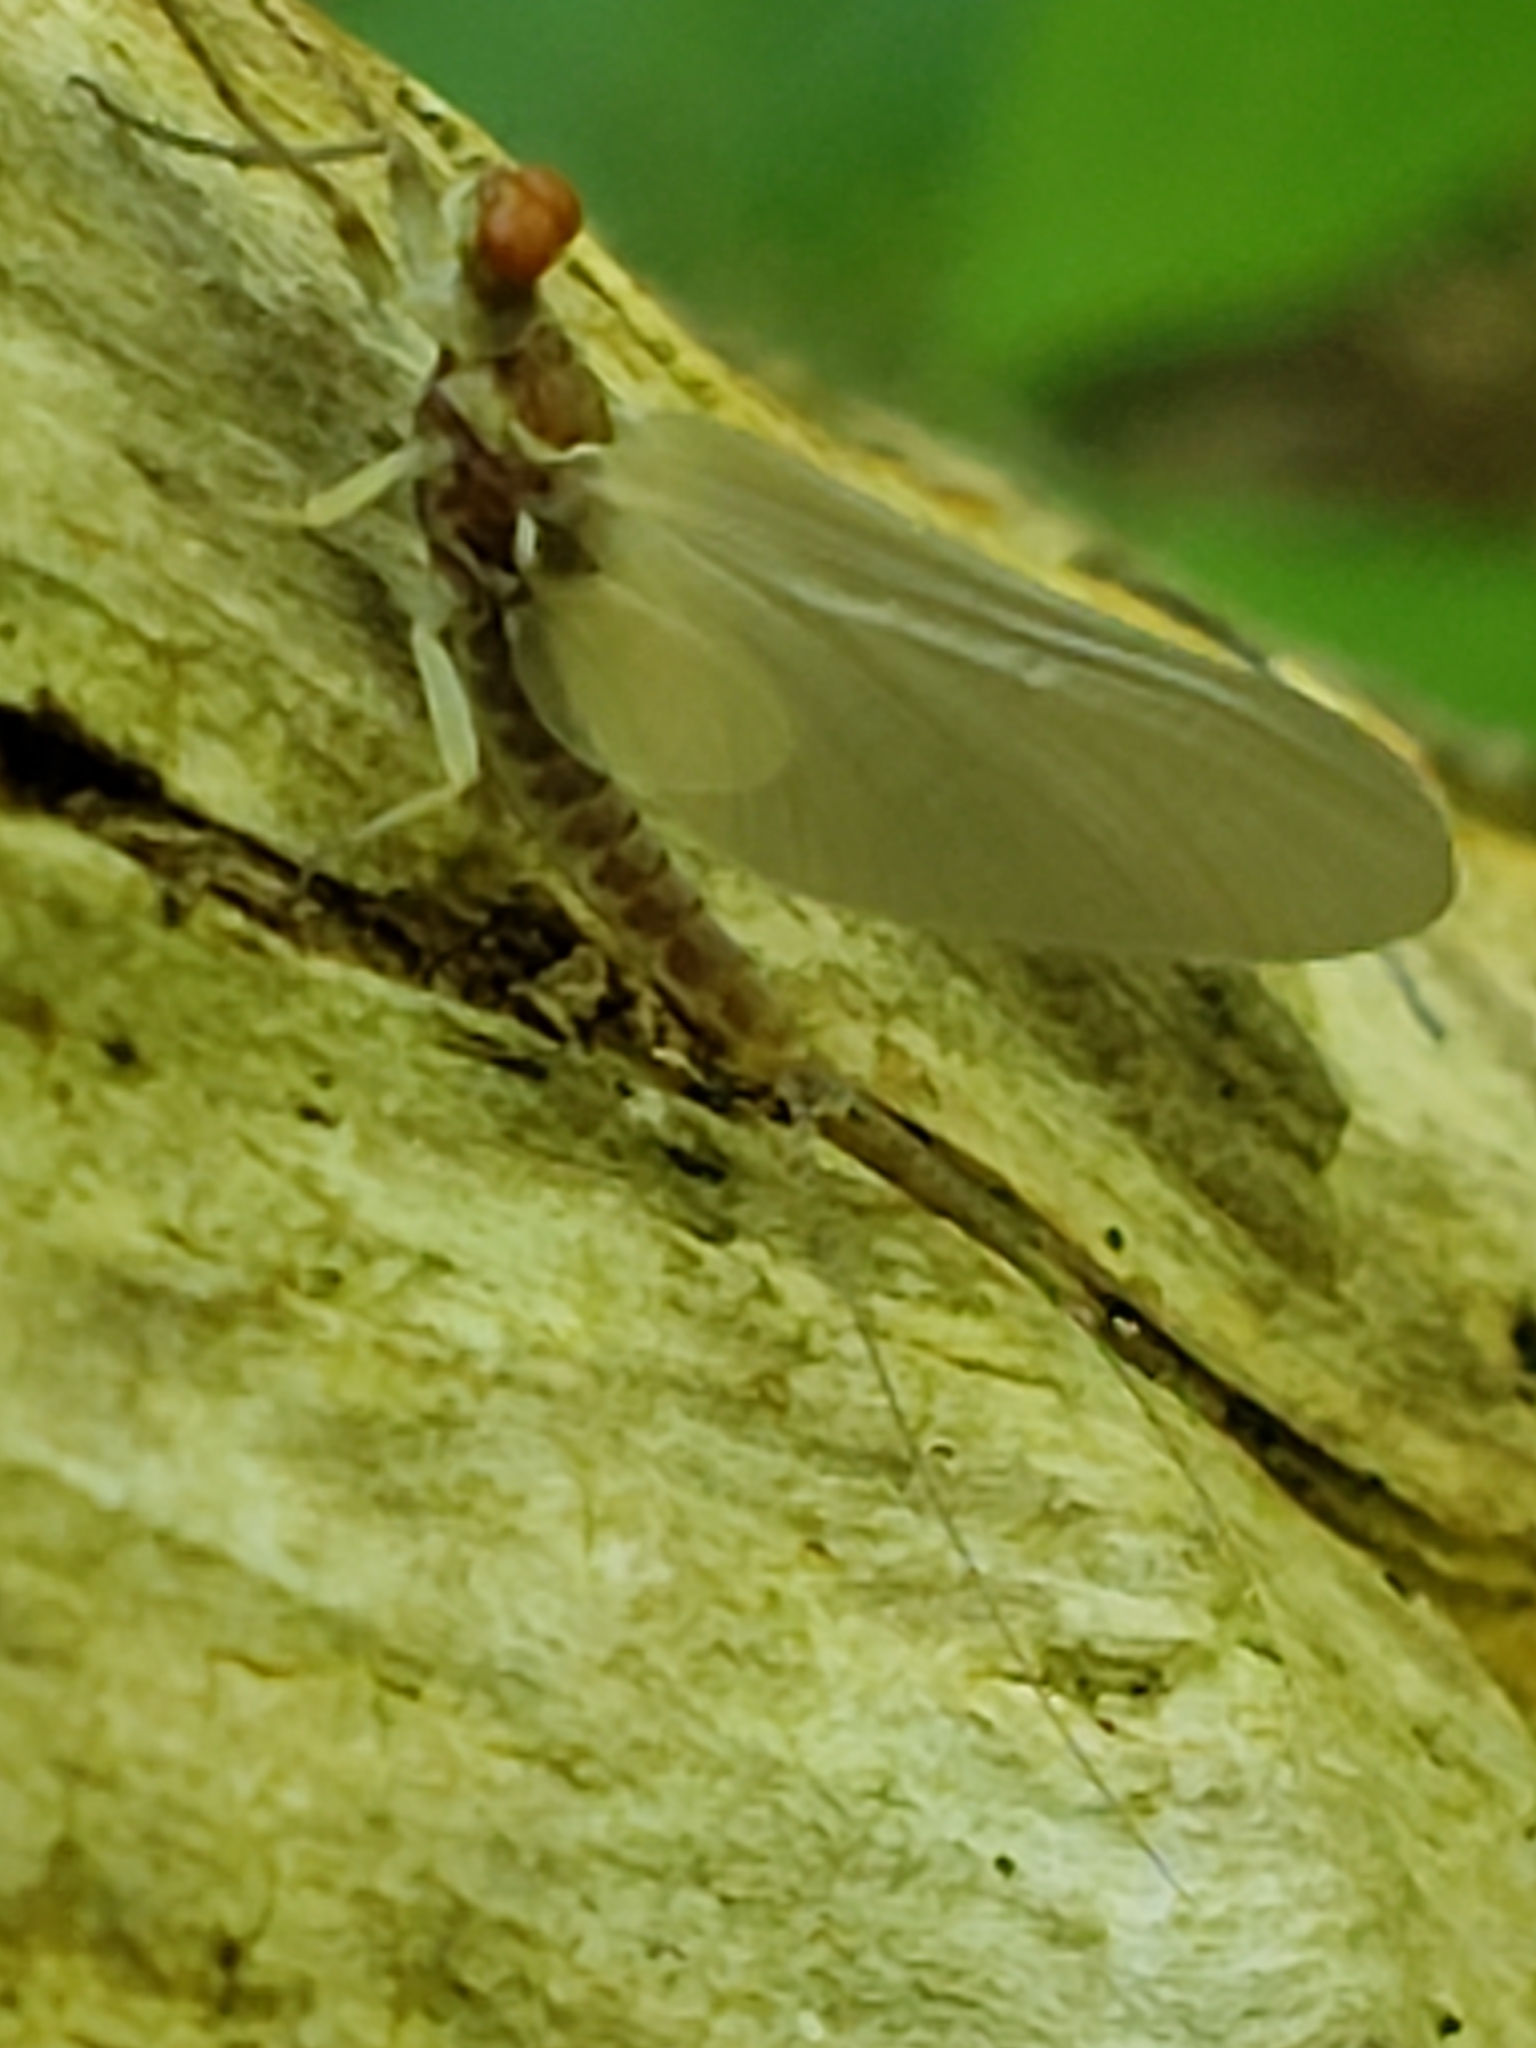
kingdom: Animalia
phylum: Arthropoda
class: Insecta
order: Ephemeroptera
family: Ephemerellidae
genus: Ephemerella
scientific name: Ephemerella subvaria
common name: Dark hendrickson
